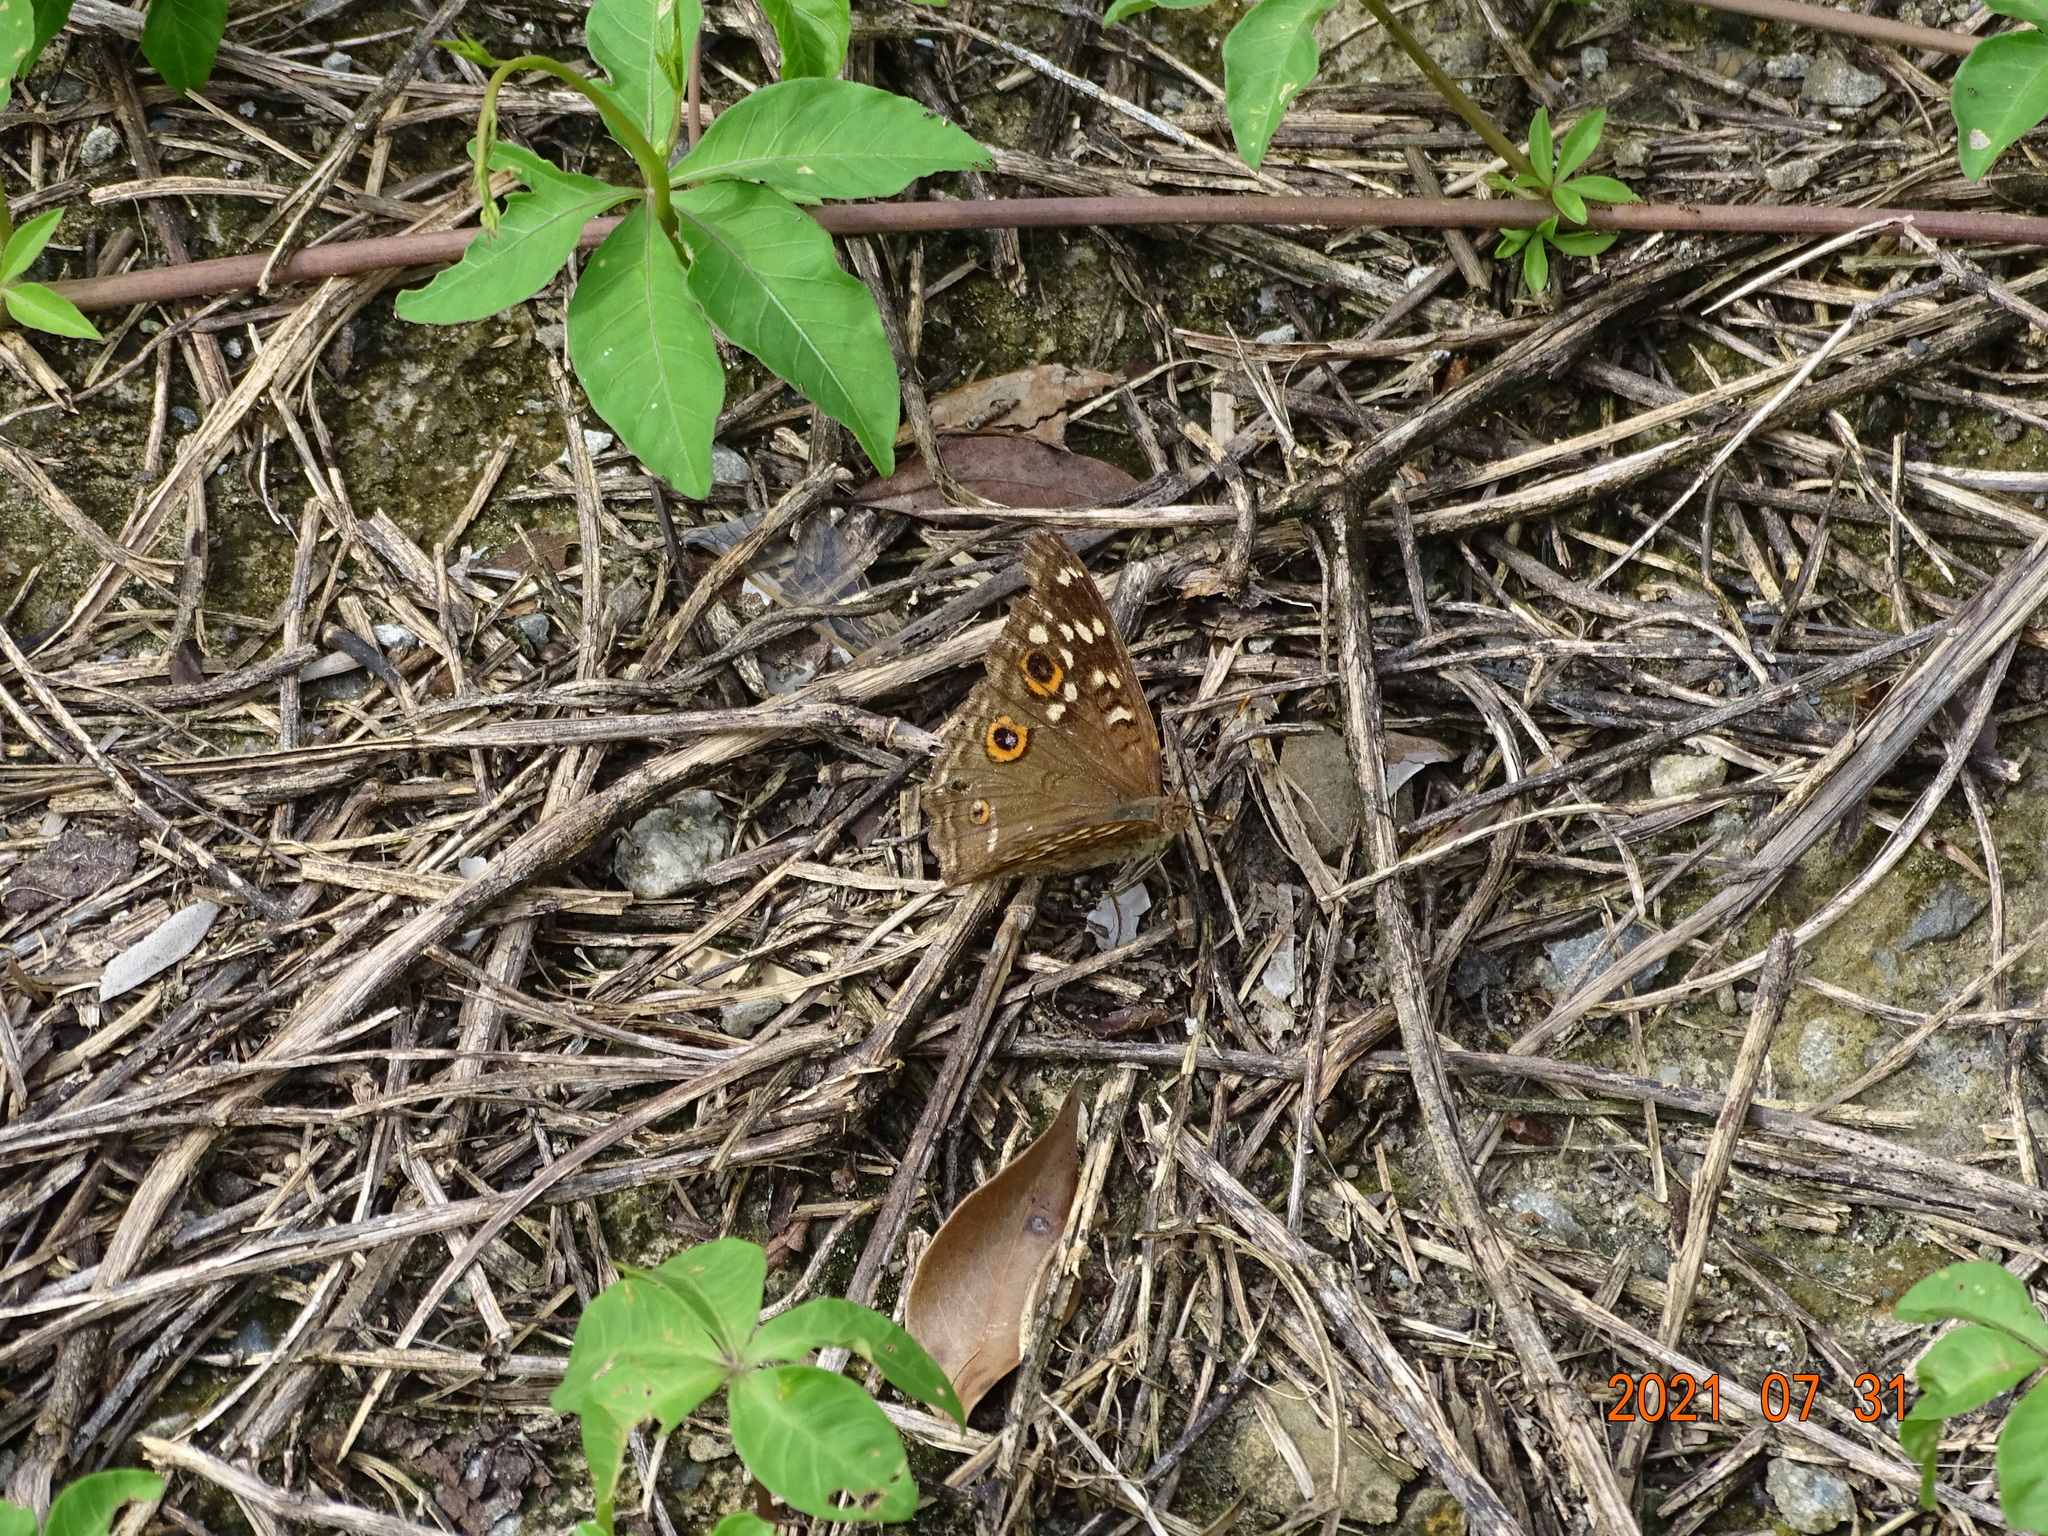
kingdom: Animalia
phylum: Arthropoda
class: Insecta
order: Lepidoptera
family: Nymphalidae
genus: Junonia
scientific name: Junonia lemonias
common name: Lemon pansy
